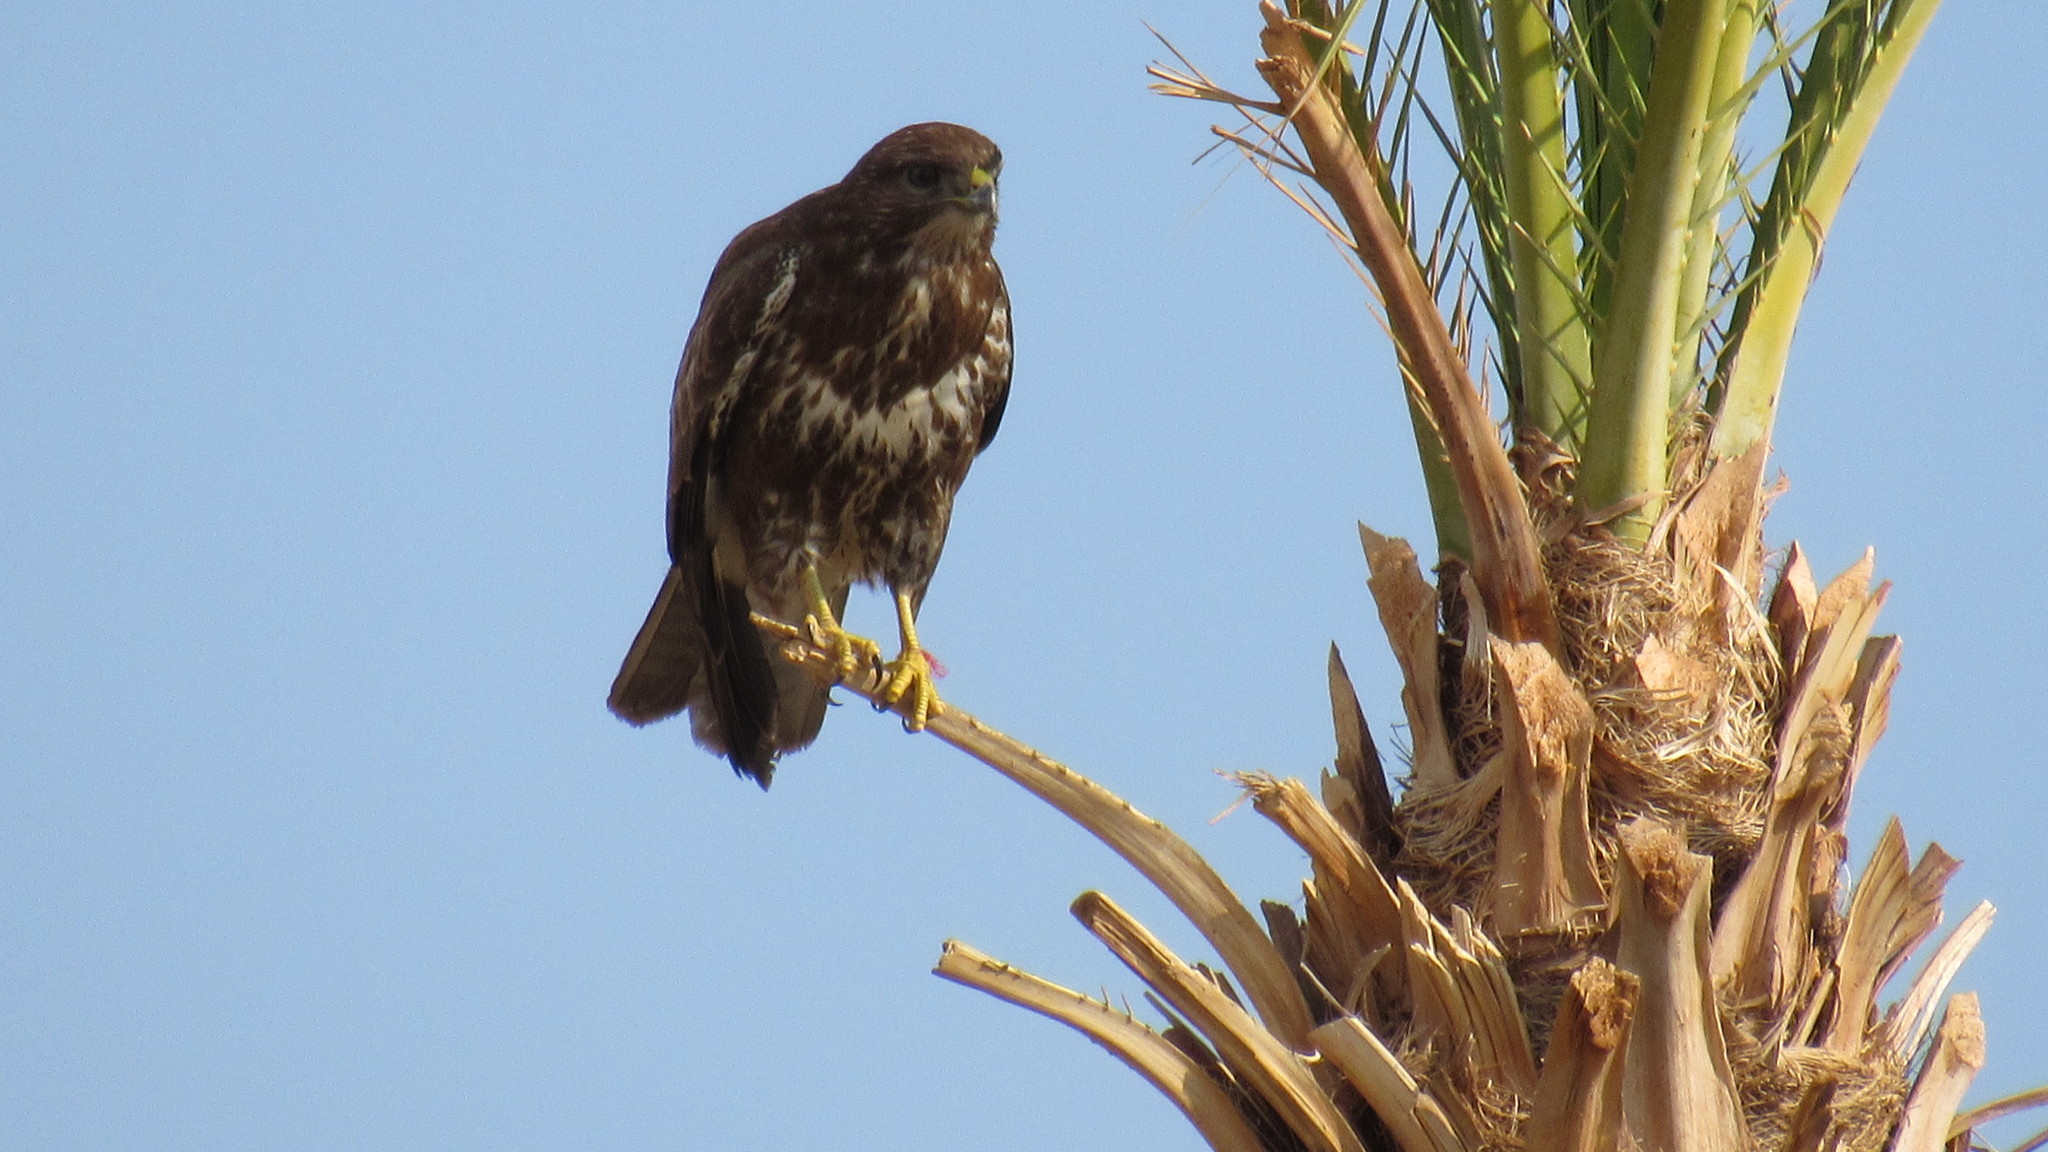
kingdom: Animalia
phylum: Chordata
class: Aves
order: Accipitriformes
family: Accipitridae
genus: Buteo
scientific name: Buteo buteo
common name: Common buzzard
